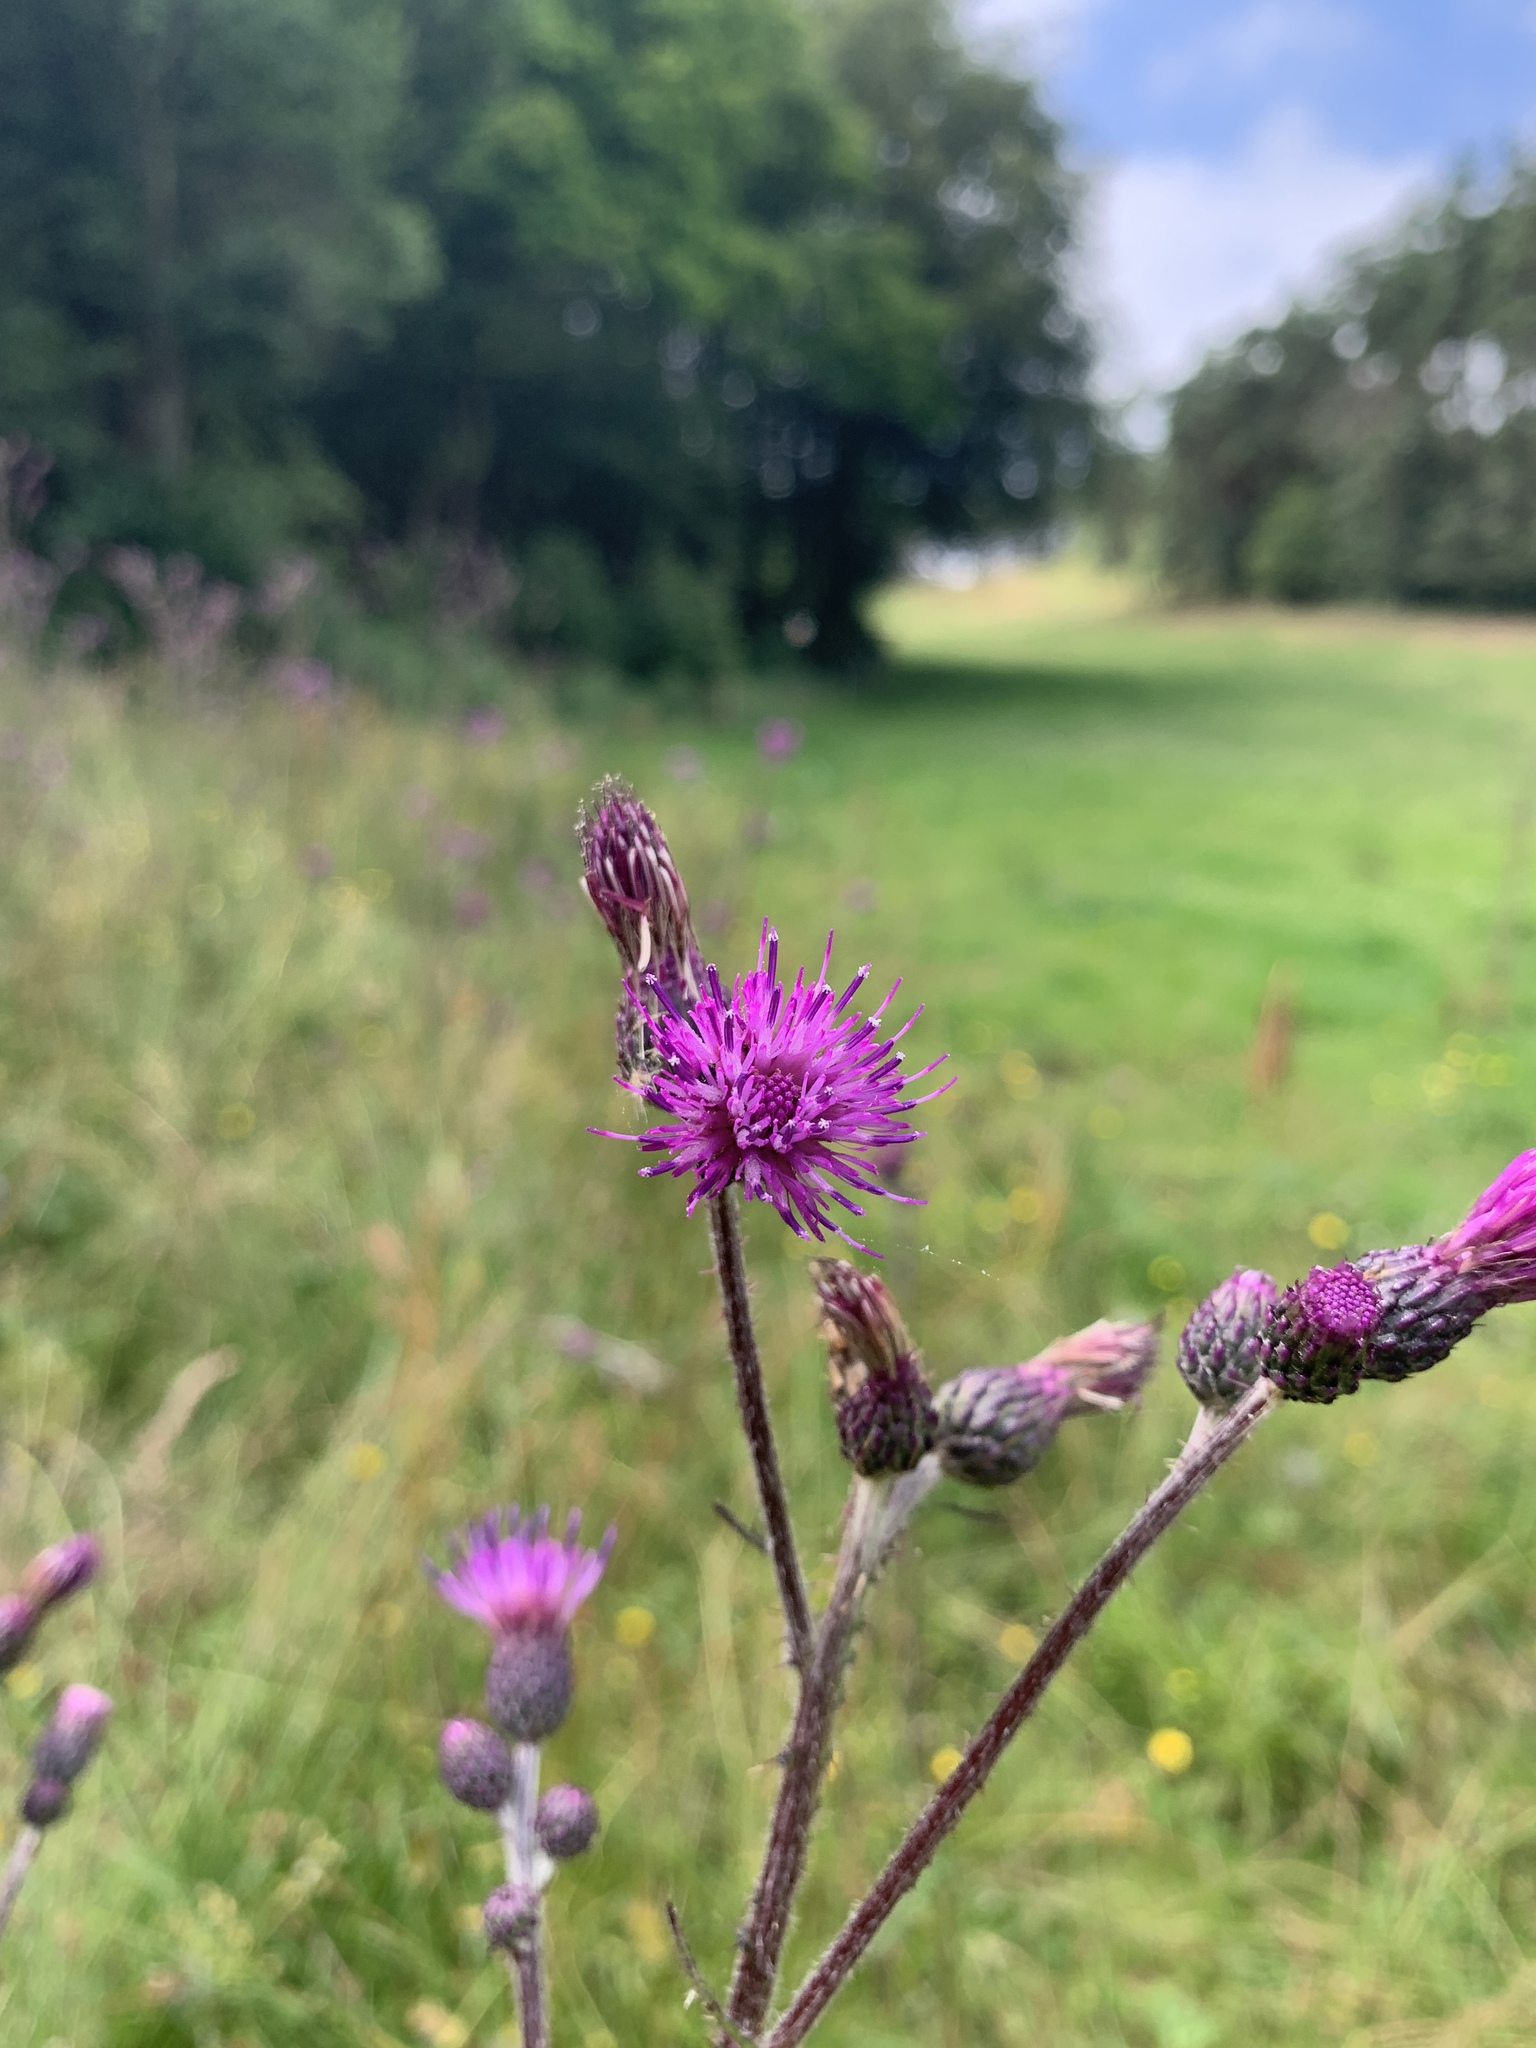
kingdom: Plantae
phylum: Tracheophyta
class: Magnoliopsida
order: Asterales
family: Asteraceae
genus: Cirsium
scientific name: Cirsium palustre
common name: Marsh thistle
